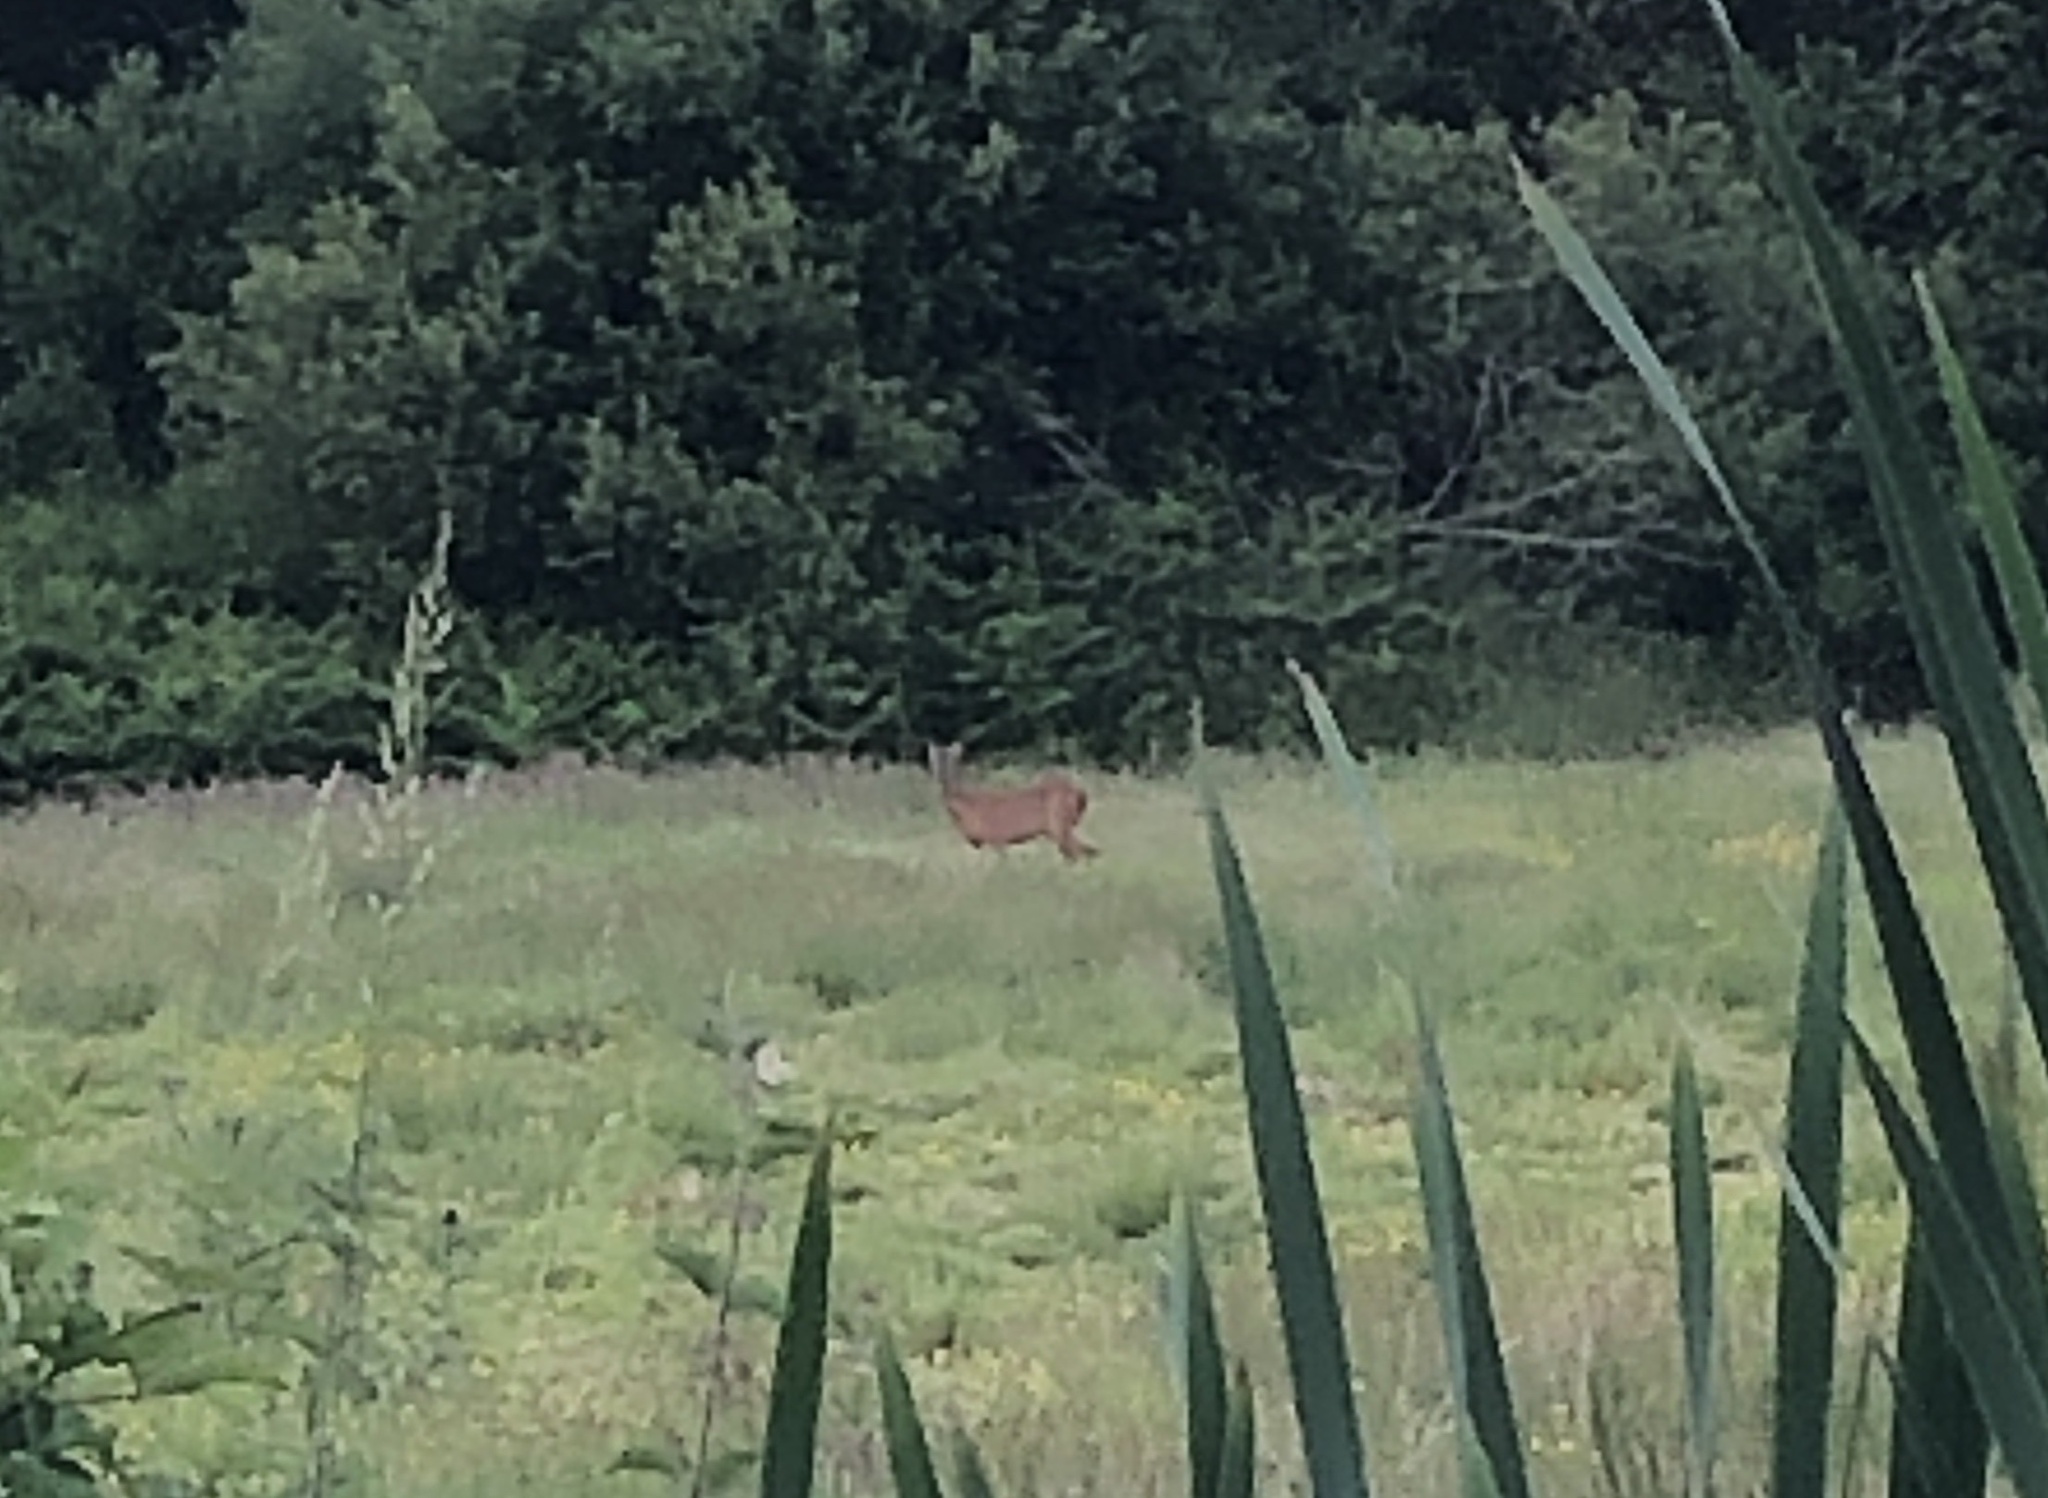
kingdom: Animalia
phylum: Chordata
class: Mammalia
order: Artiodactyla
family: Cervidae
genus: Capreolus
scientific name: Capreolus capreolus
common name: Western roe deer
